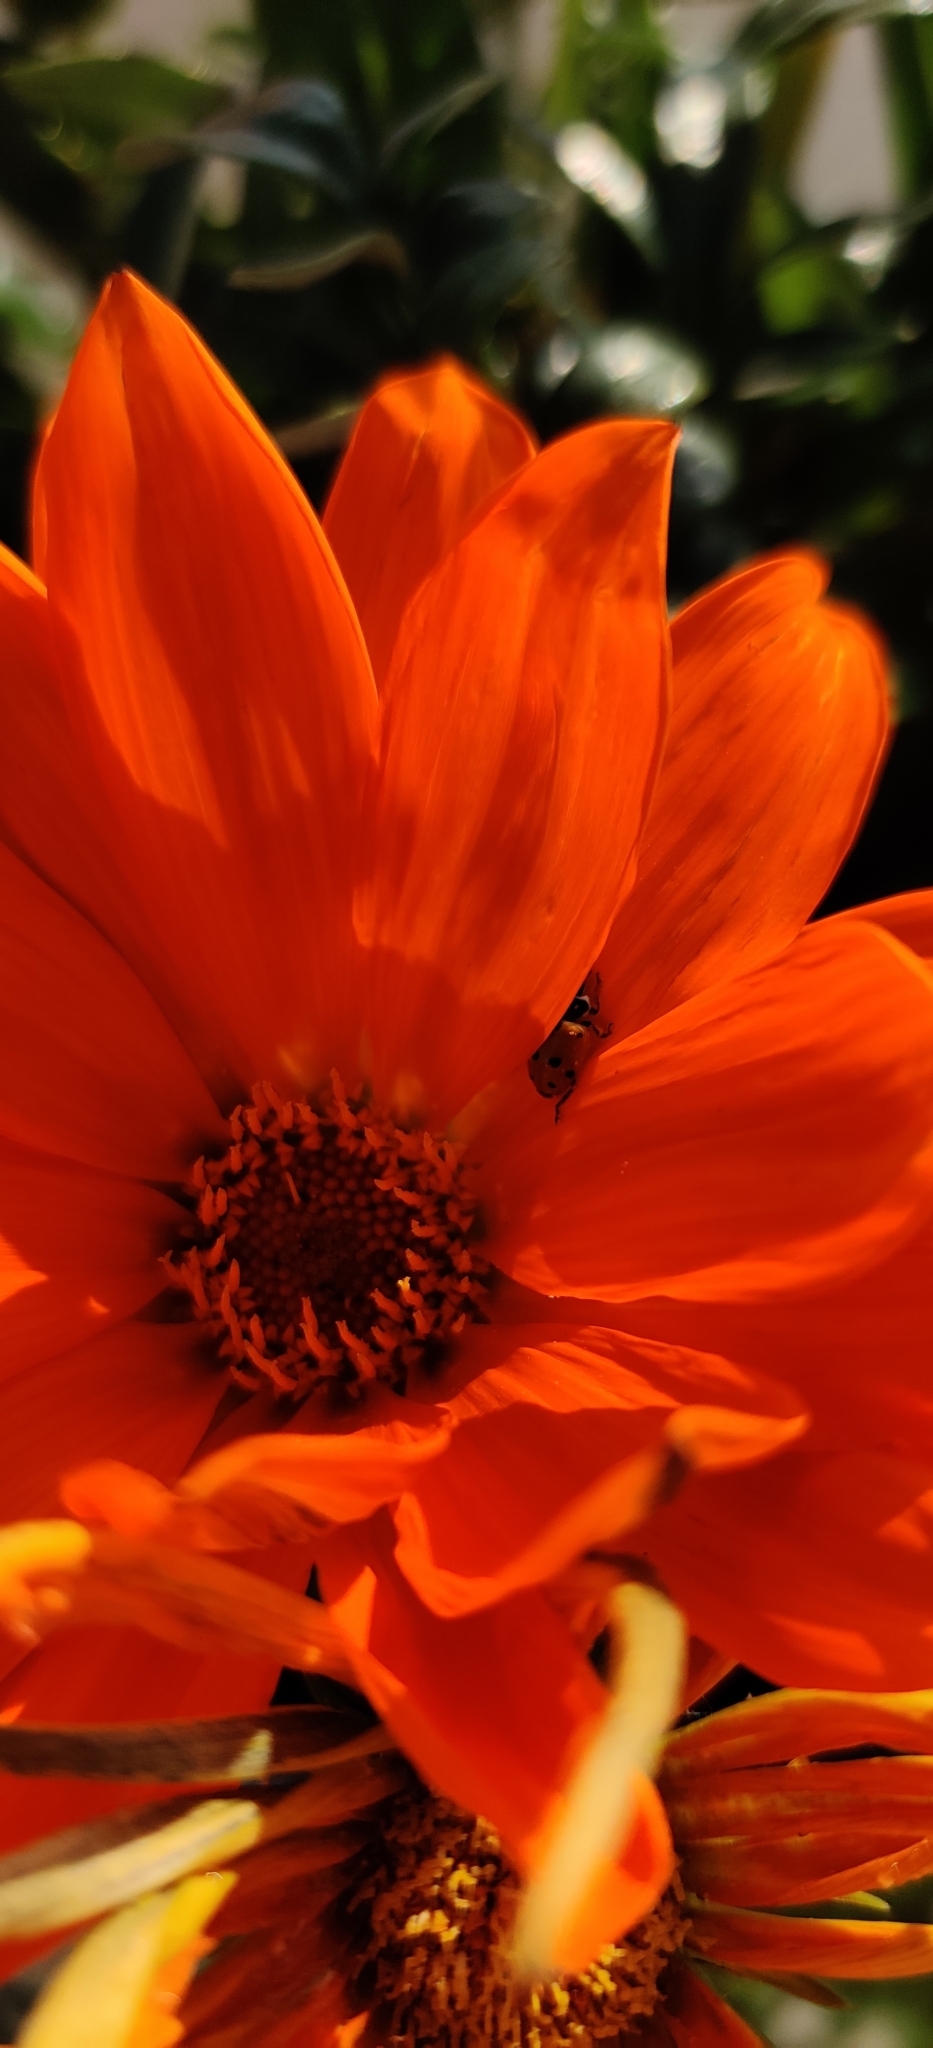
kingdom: Animalia
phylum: Arthropoda
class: Insecta
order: Coleoptera
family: Coccinellidae
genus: Hippodamia
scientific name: Hippodamia variegata
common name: Ladybird beetle
